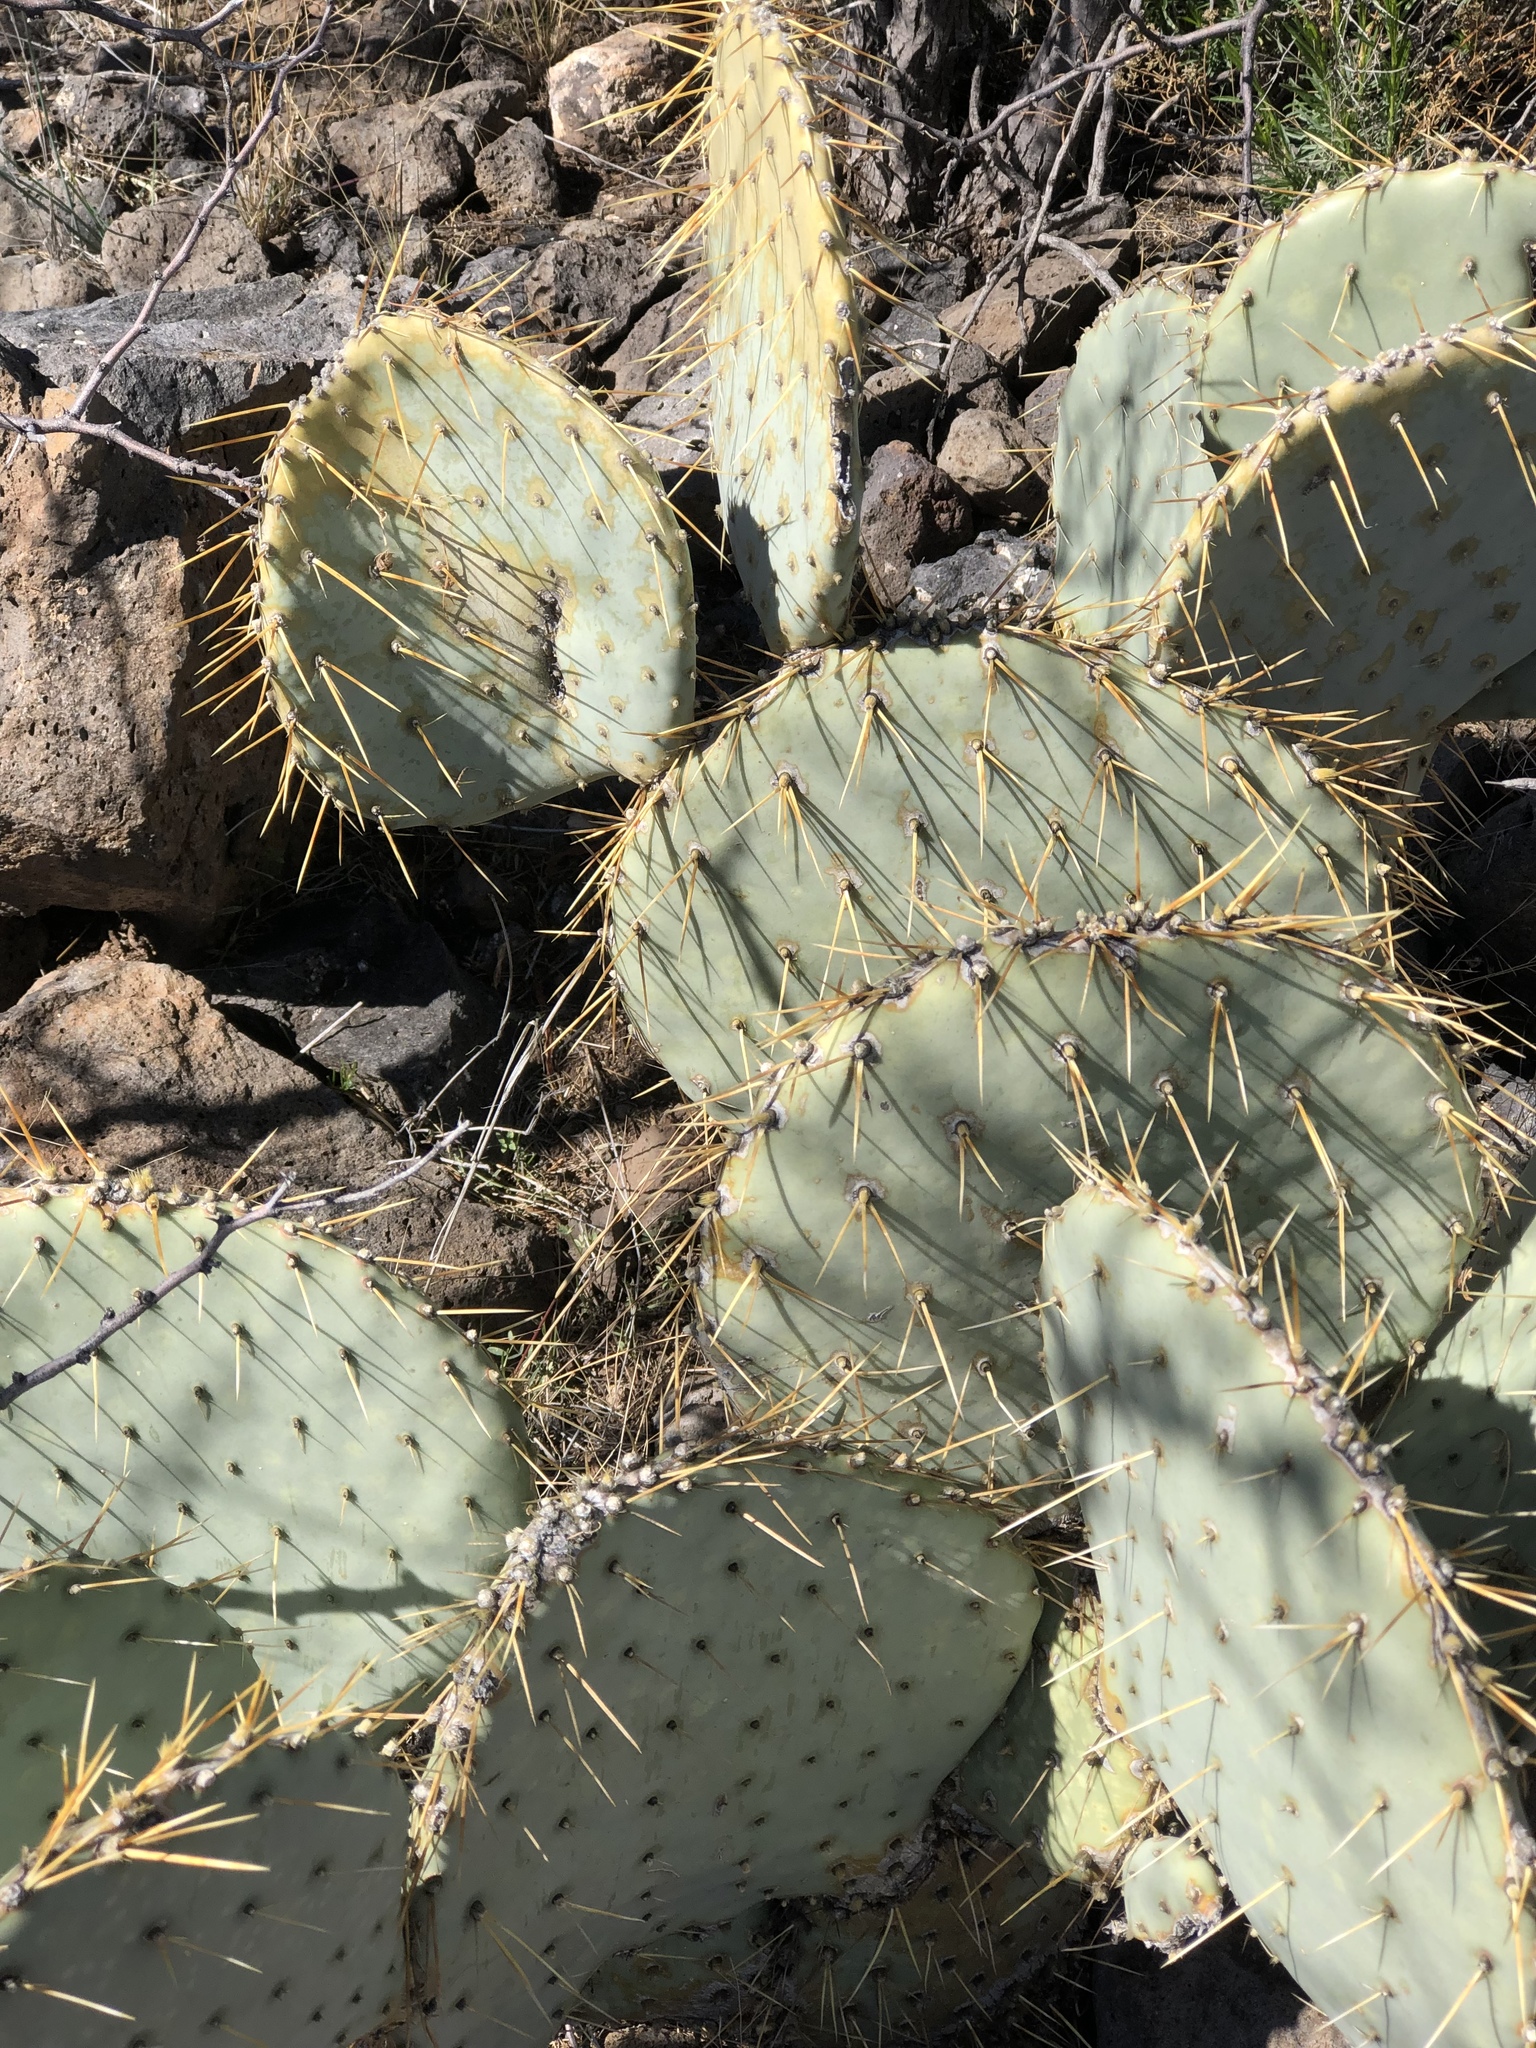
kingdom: Plantae
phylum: Tracheophyta
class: Magnoliopsida
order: Caryophyllales
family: Cactaceae
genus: Opuntia
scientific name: Opuntia chlorotica
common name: Dollar-joint prickly-pear
